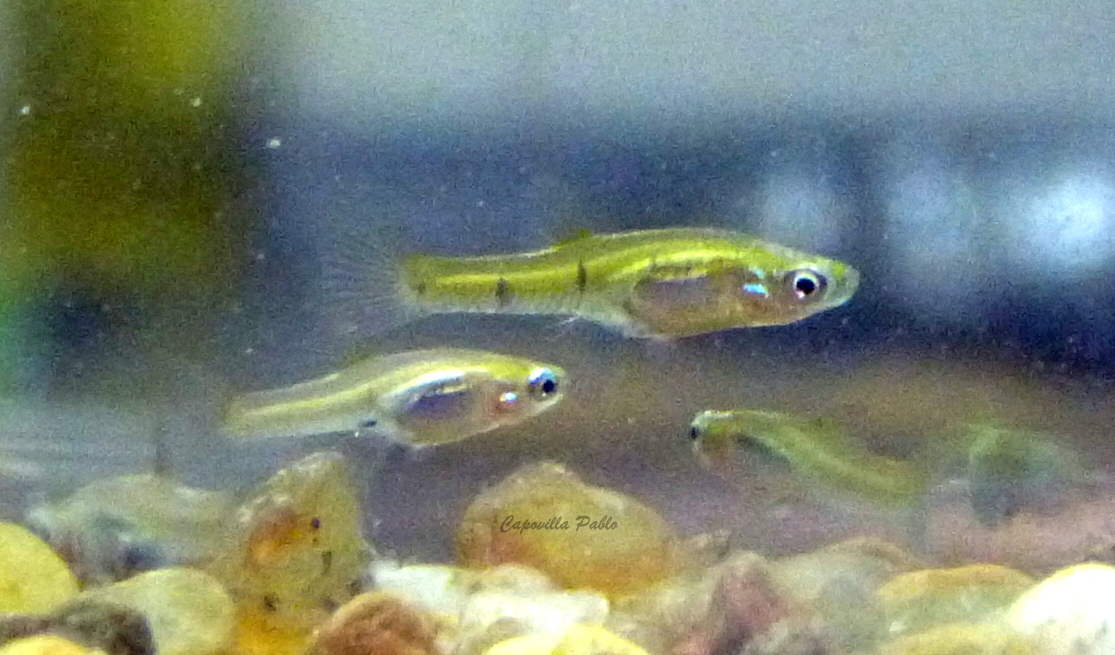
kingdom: Animalia
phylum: Chordata
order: Cyprinodontiformes
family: Poeciliidae
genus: Cnesterodon
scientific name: Cnesterodon raddai
